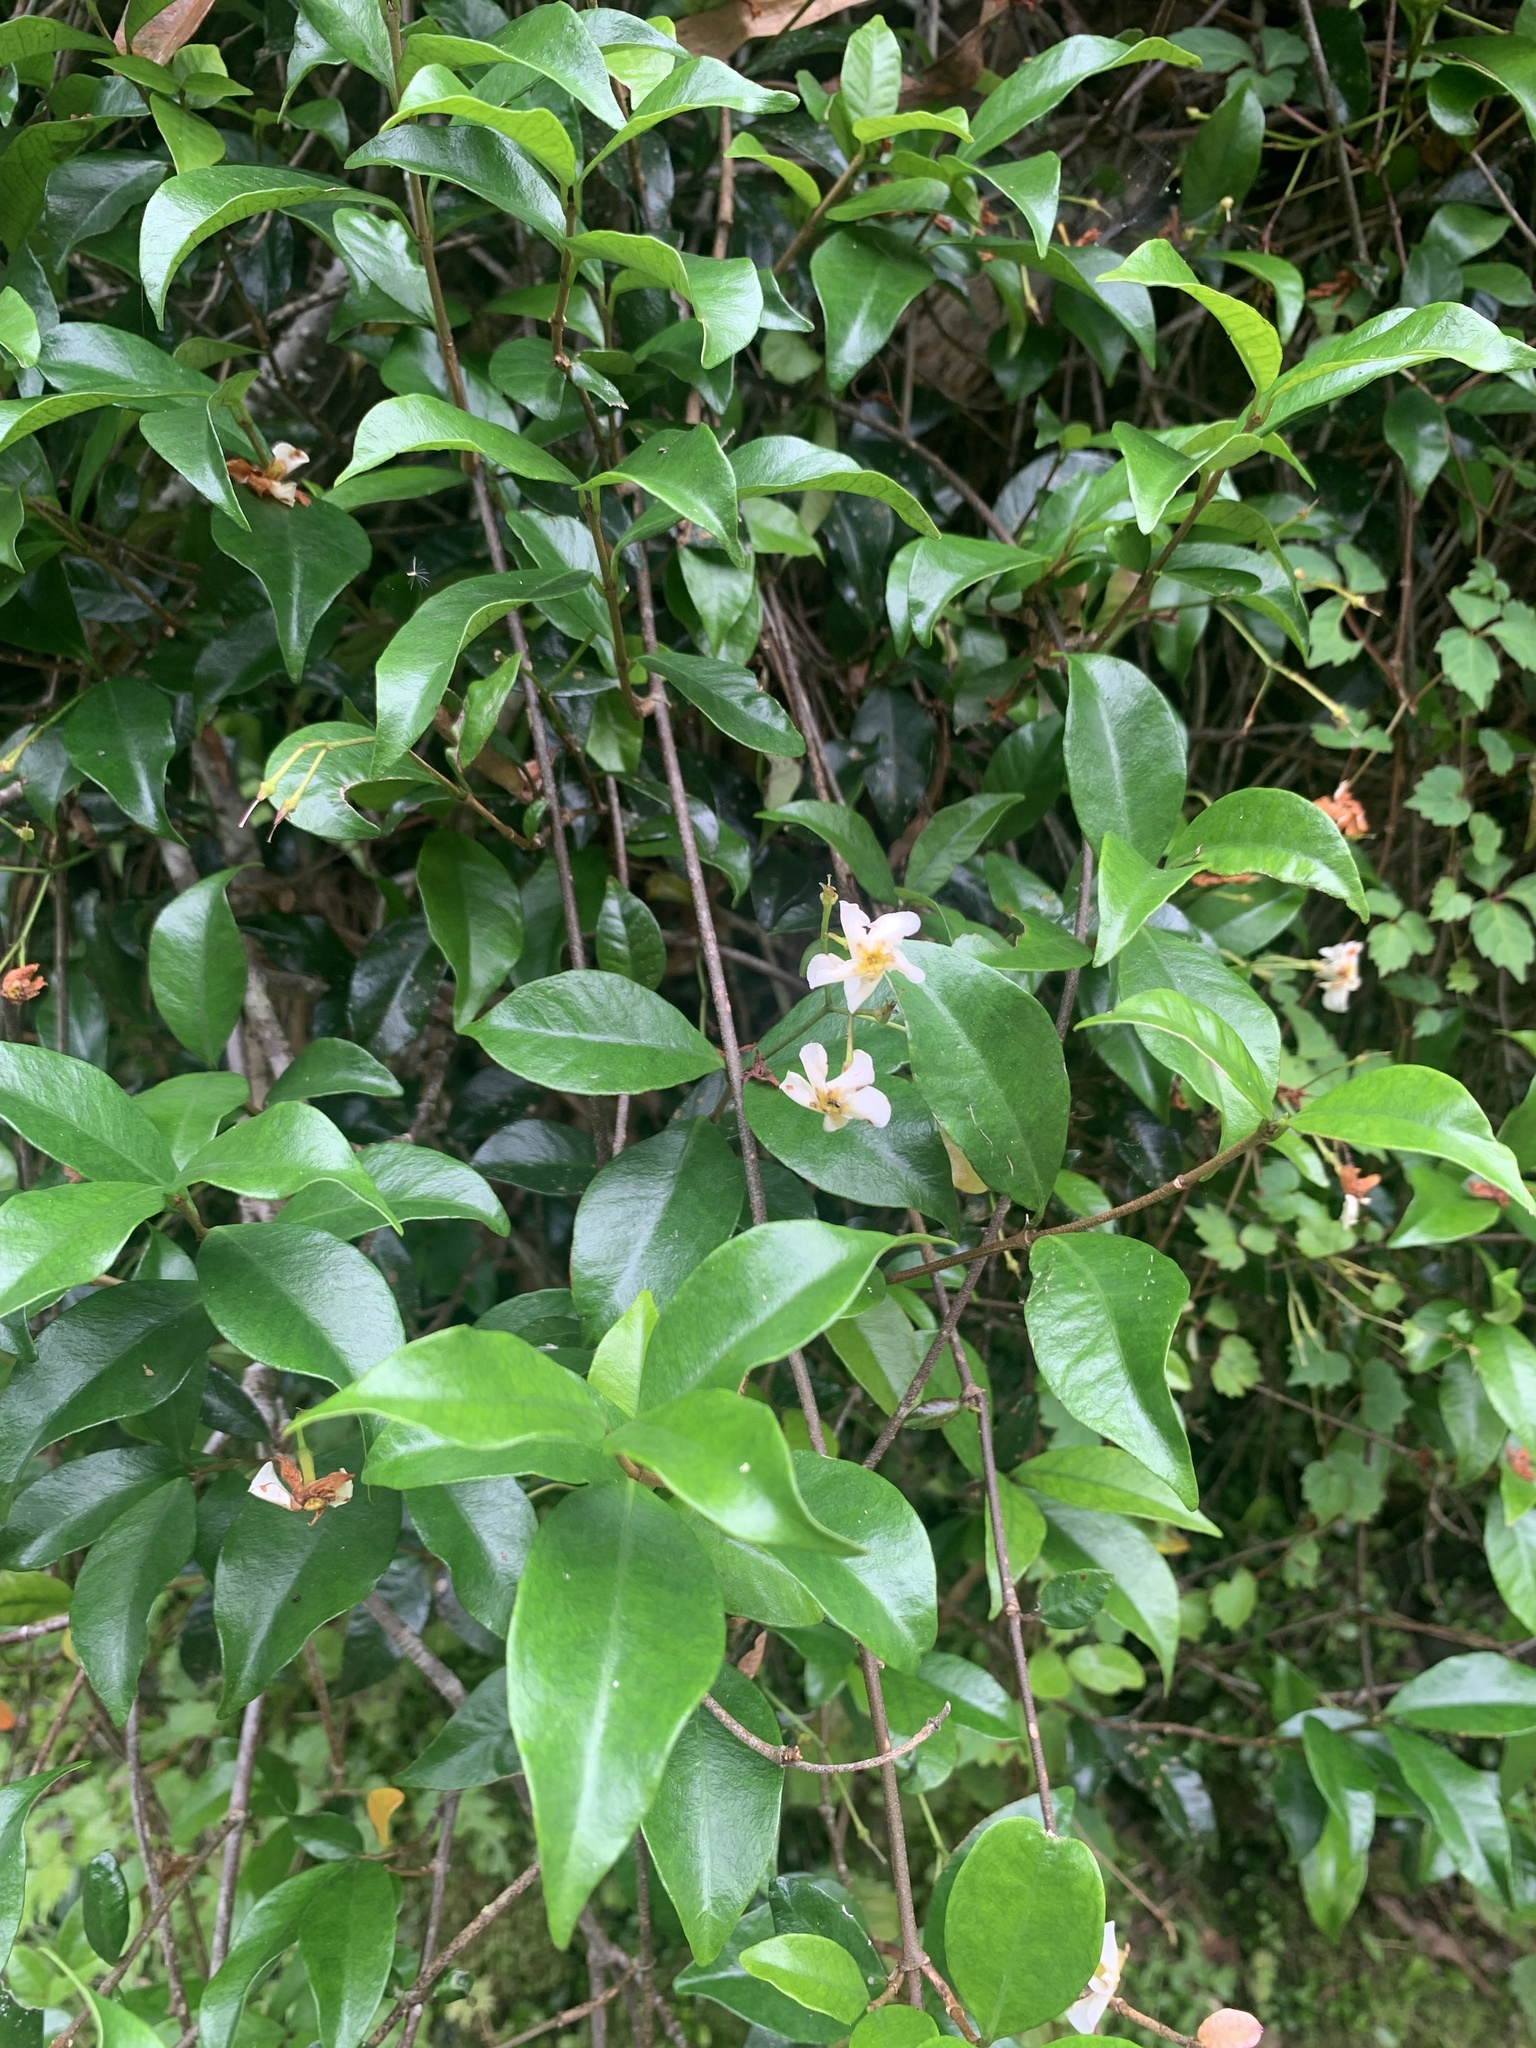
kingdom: Plantae
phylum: Tracheophyta
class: Magnoliopsida
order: Gentianales
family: Apocynaceae
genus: Trachelospermum
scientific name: Trachelospermum asiaticum
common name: Asiatic jasmine
